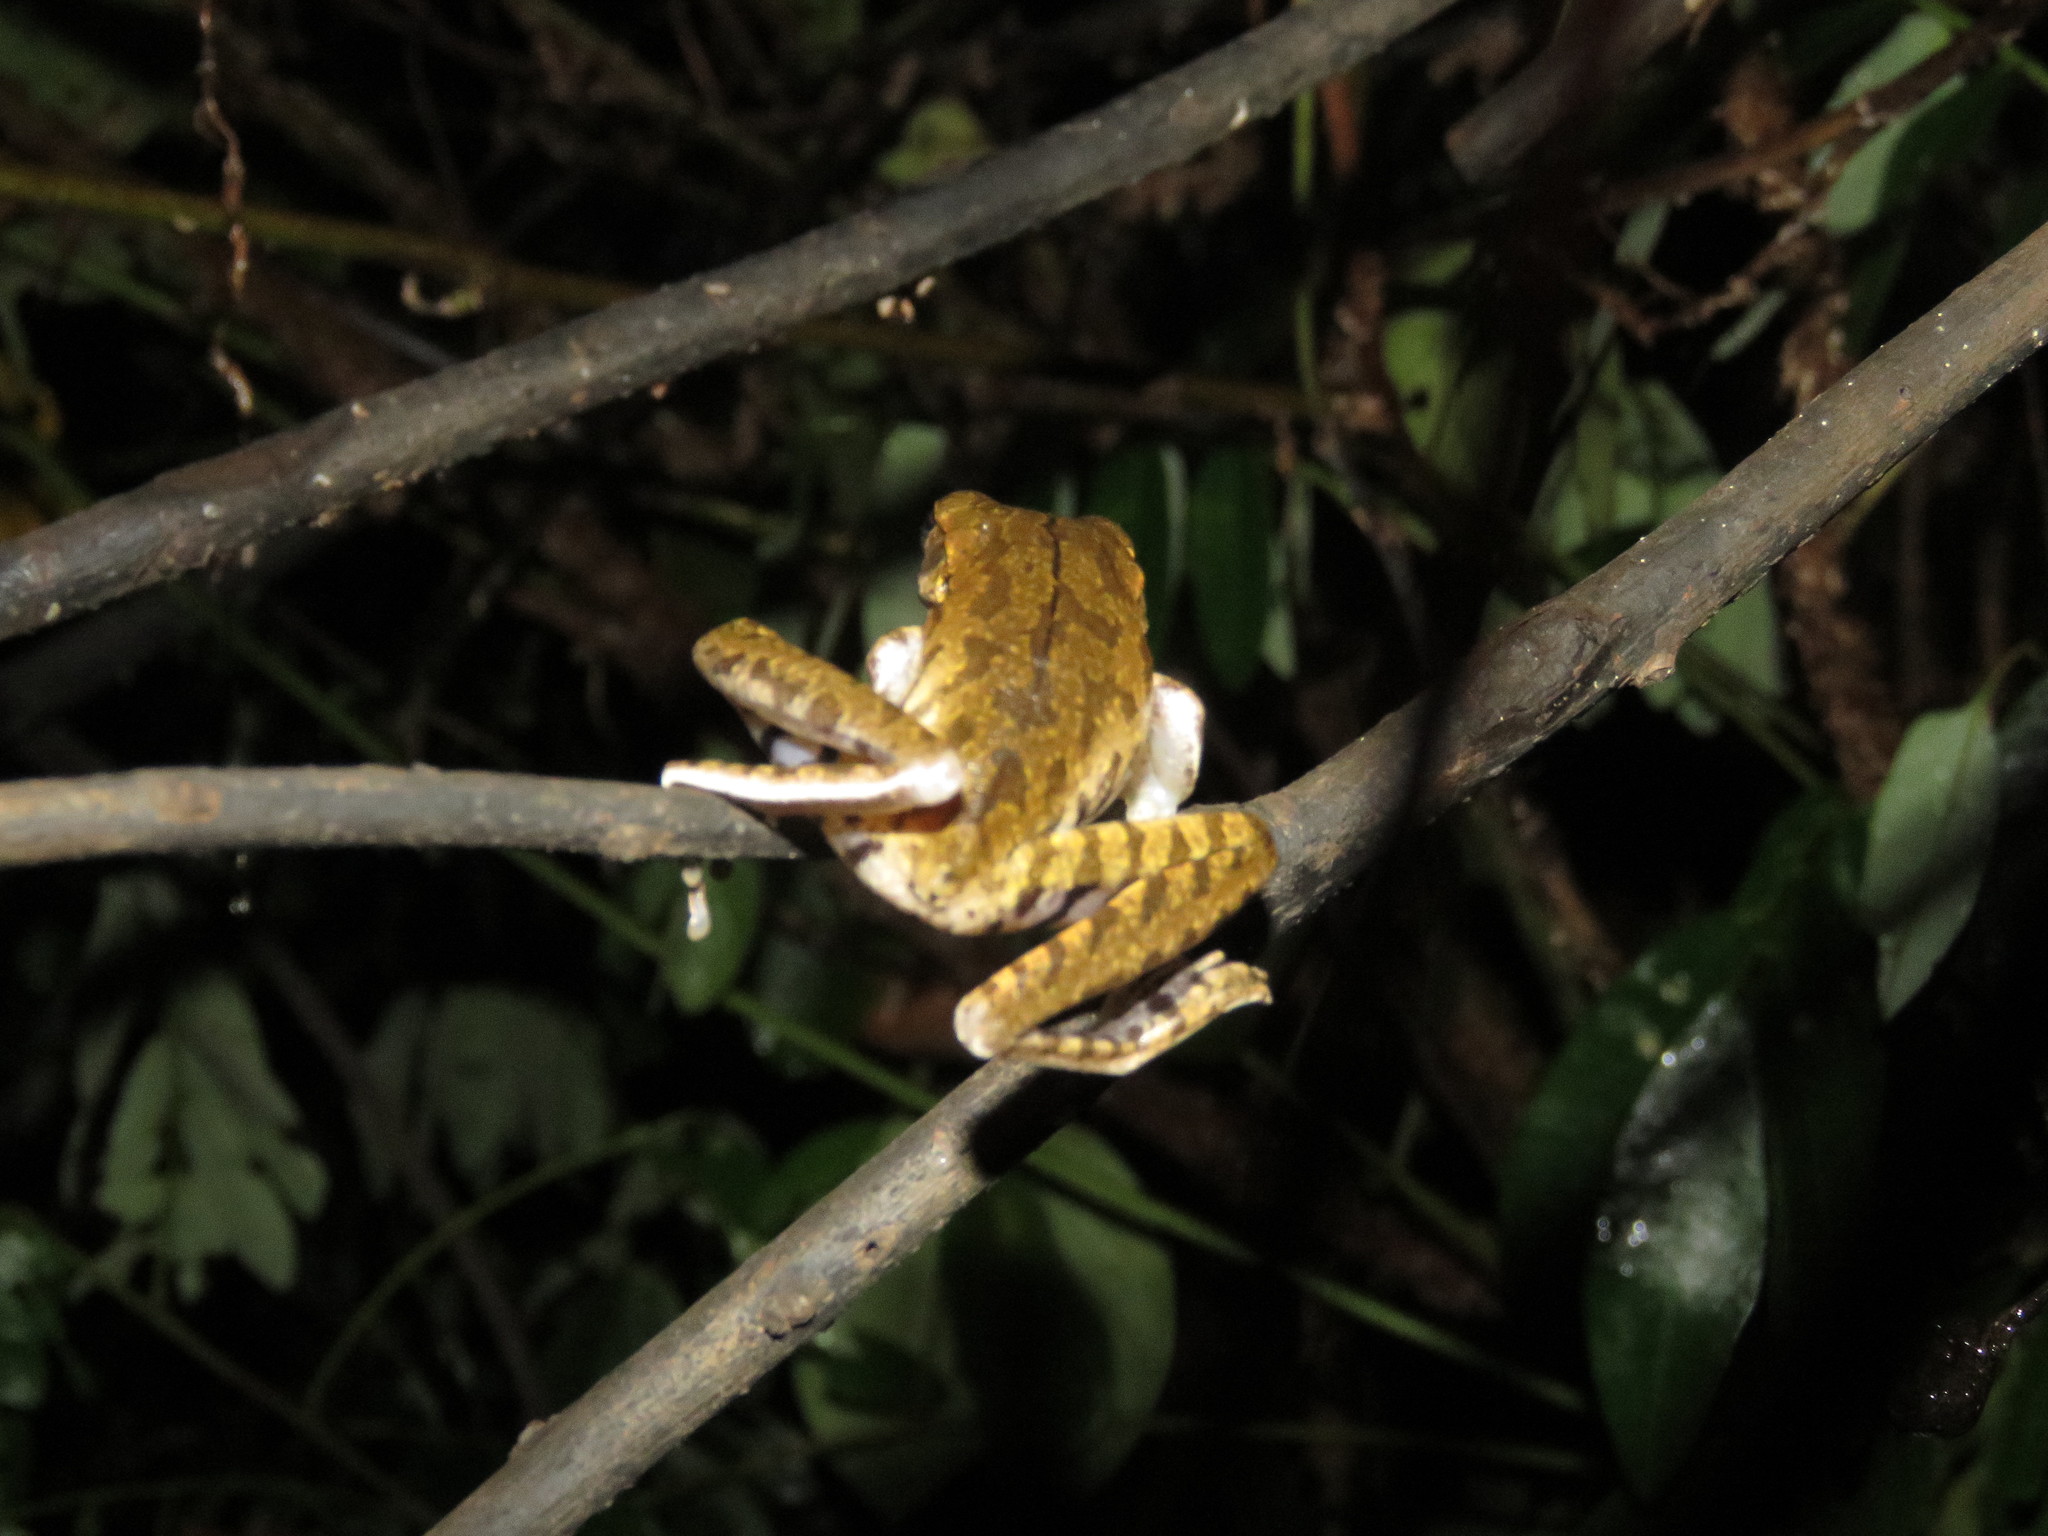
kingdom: Animalia
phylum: Chordata
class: Amphibia
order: Anura
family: Hylidae
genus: Boana
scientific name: Boana raniceps
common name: Chaco treefrog
